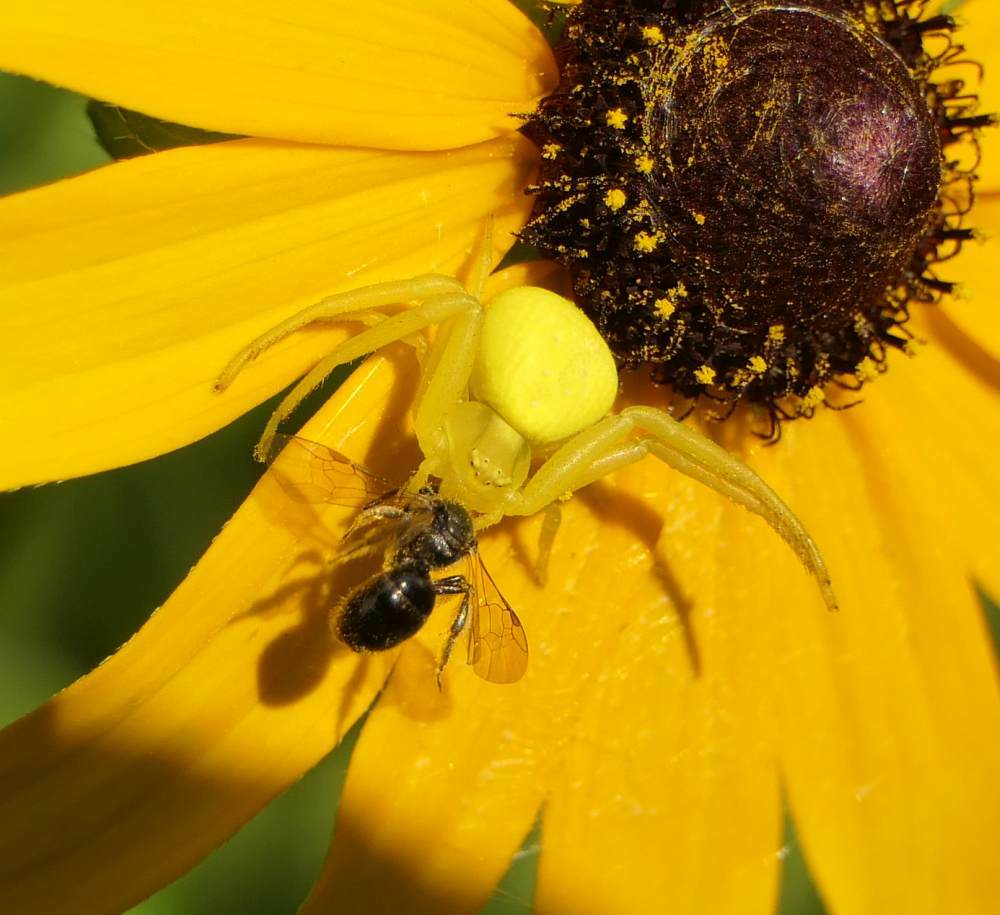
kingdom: Animalia
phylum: Arthropoda
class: Arachnida
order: Araneae
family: Thomisidae
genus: Misumena
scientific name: Misumena vatia
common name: Goldenrod crab spider
